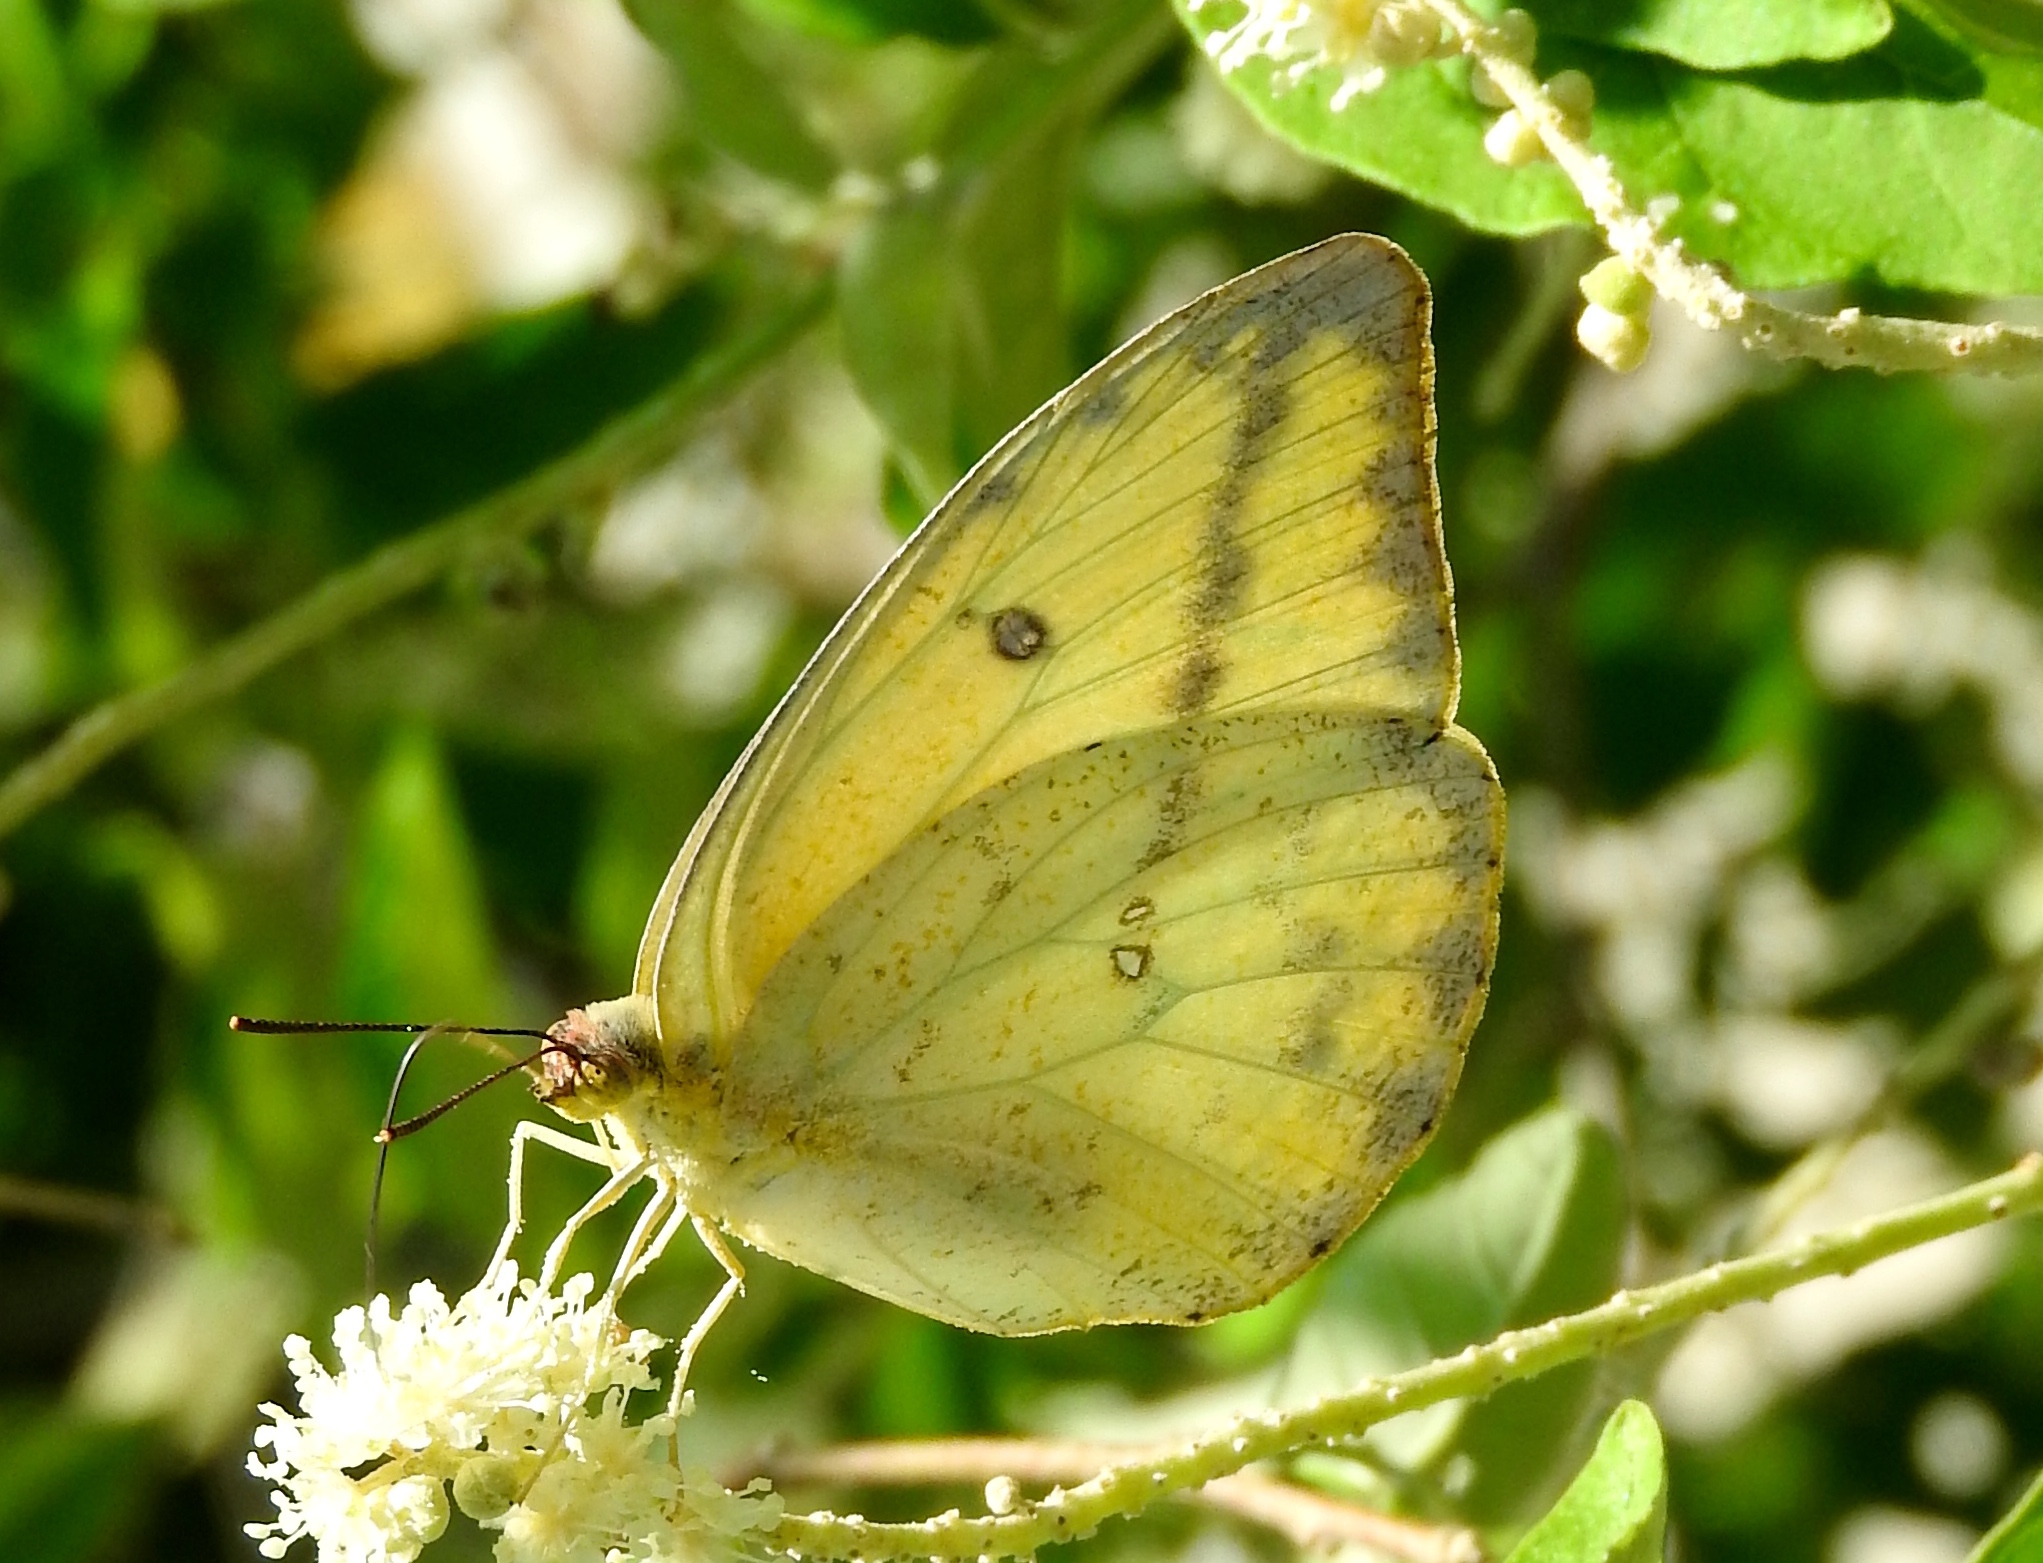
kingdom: Animalia
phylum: Arthropoda
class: Insecta
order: Lepidoptera
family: Pieridae
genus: Phoebis
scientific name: Phoebis agarithe
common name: Large orange sulphur
